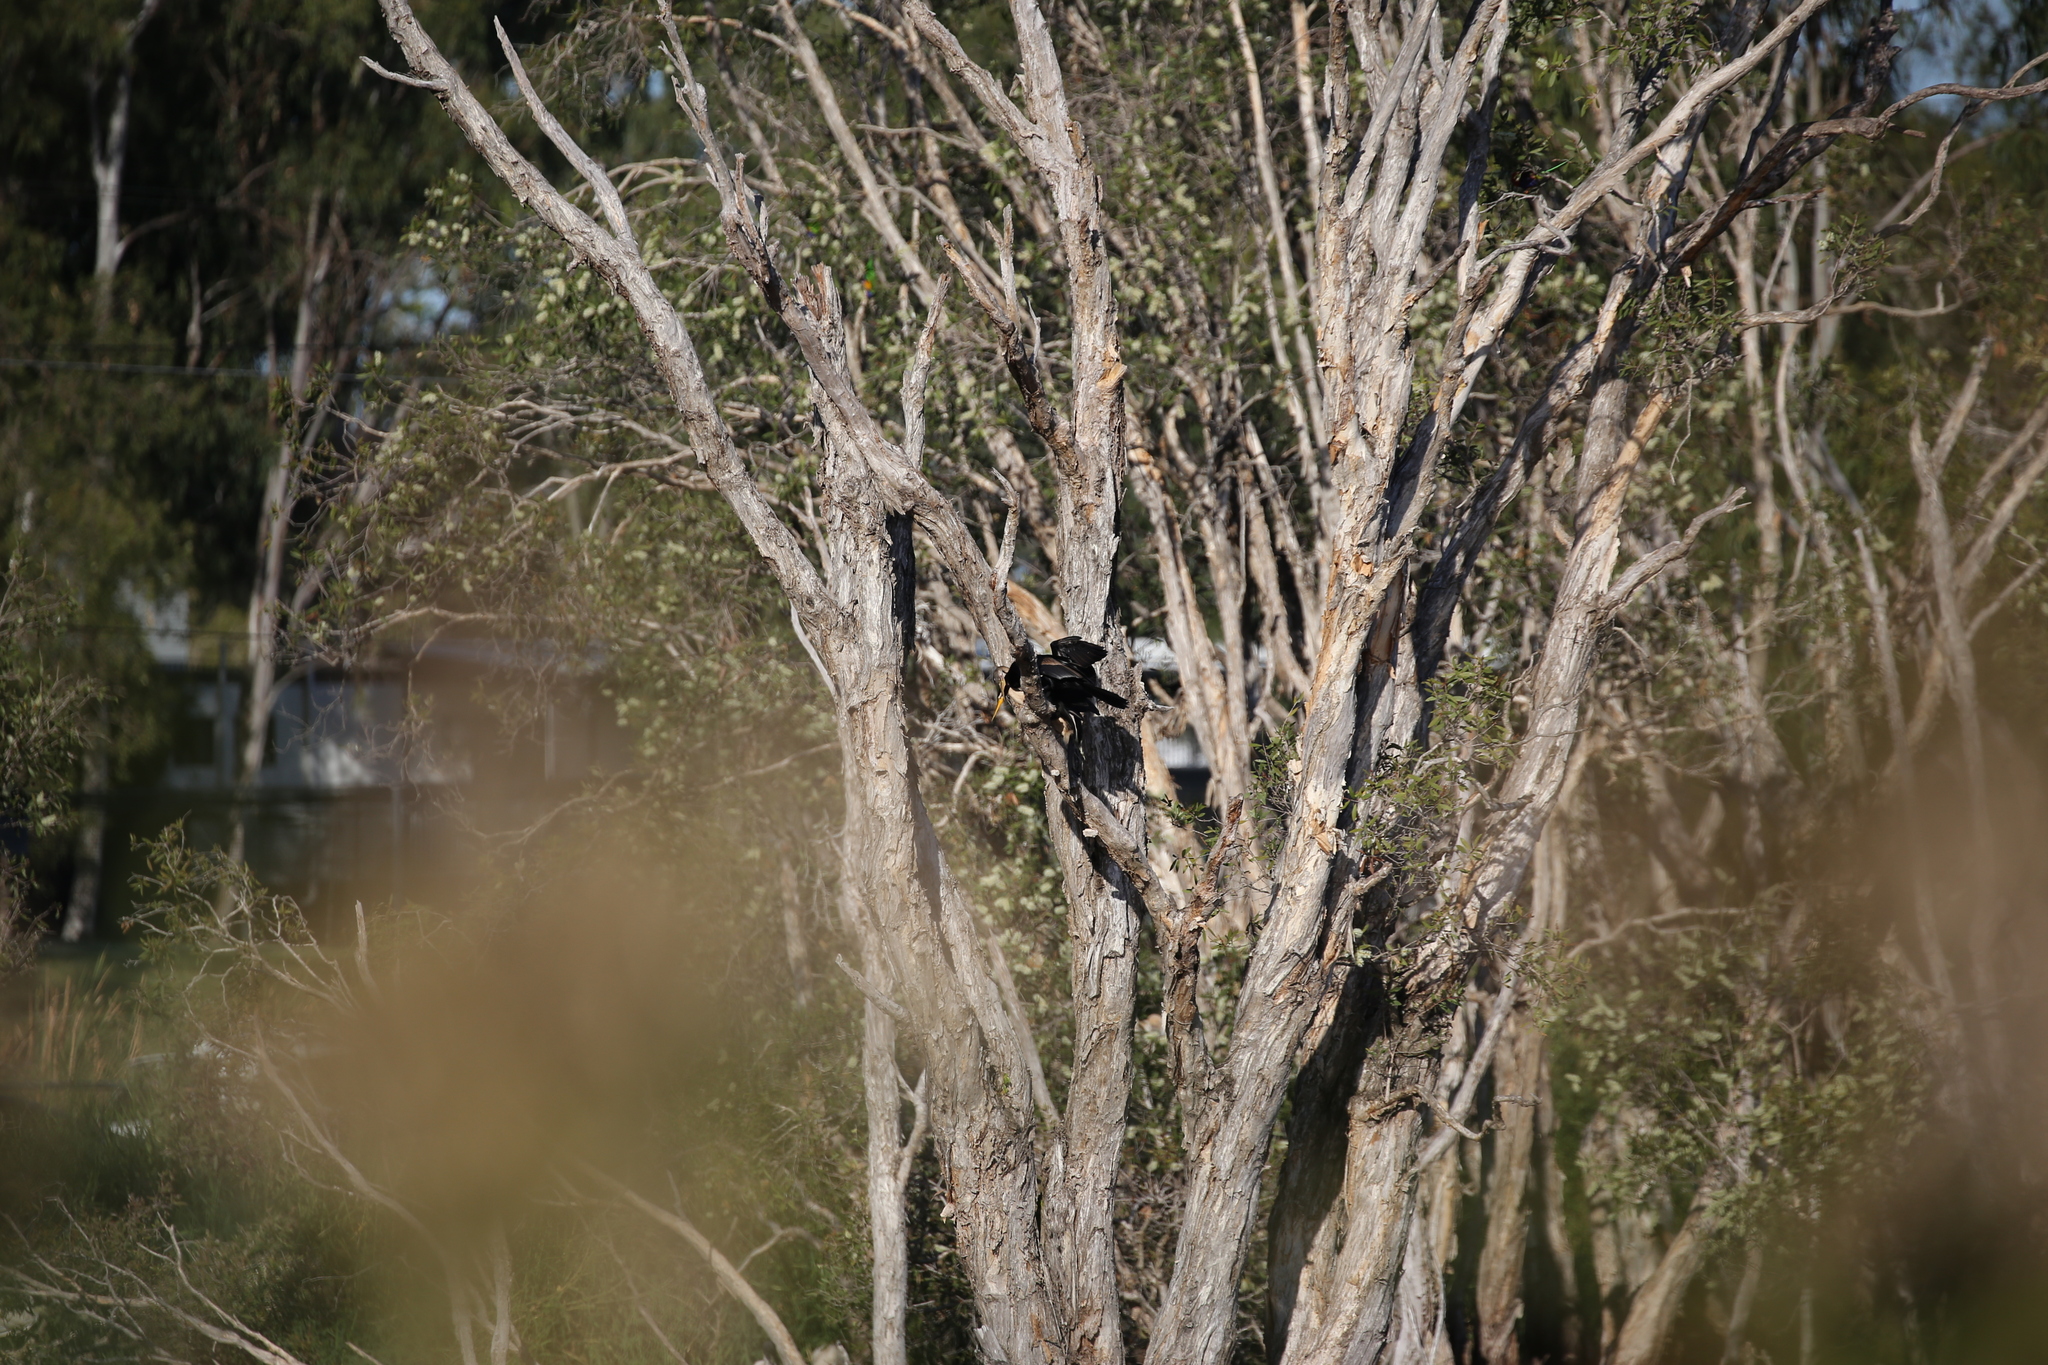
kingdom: Animalia
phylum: Chordata
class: Aves
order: Suliformes
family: Anhingidae
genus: Anhinga
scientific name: Anhinga novaehollandiae
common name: Australasian darter
